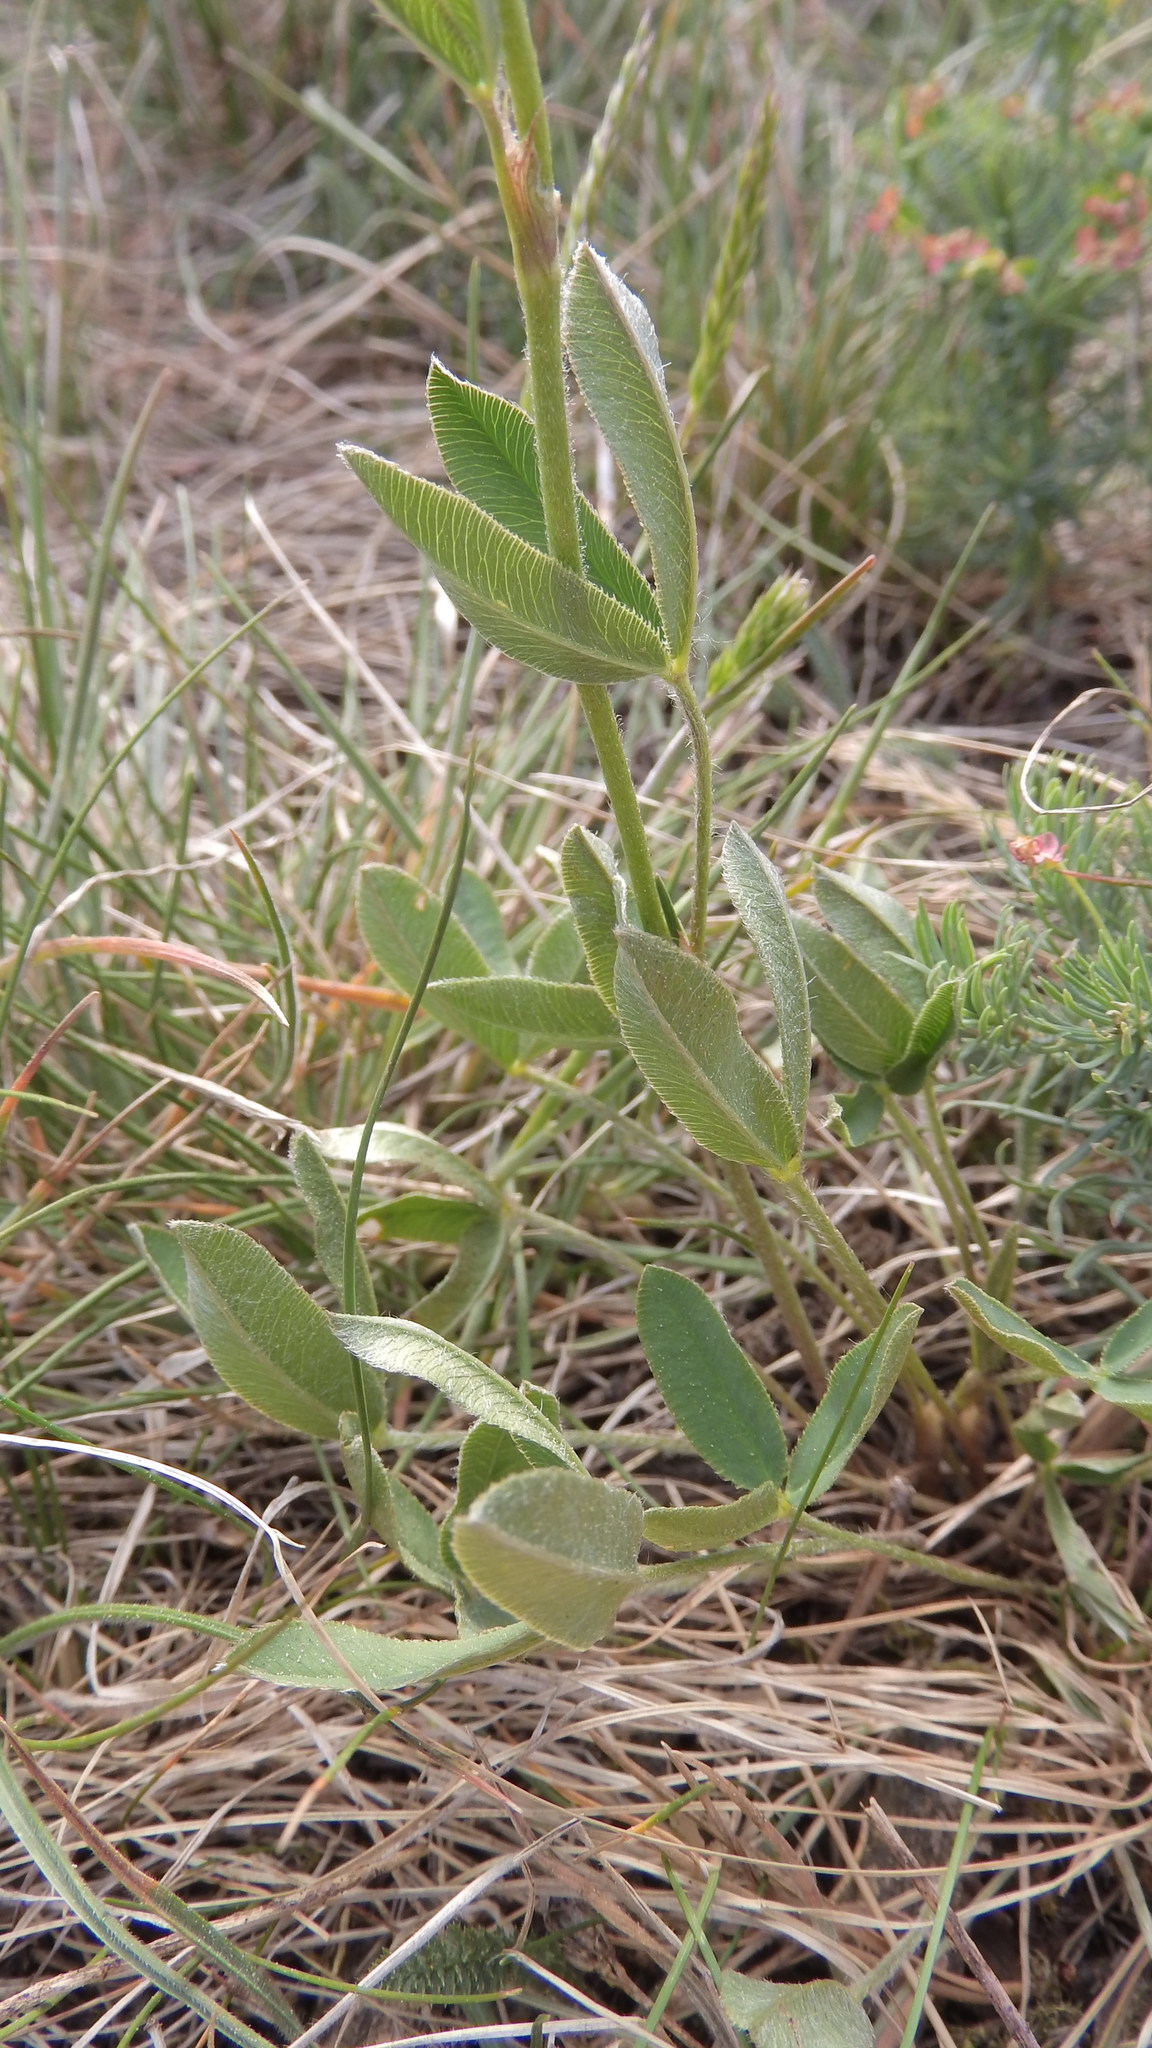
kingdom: Plantae
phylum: Tracheophyta
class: Magnoliopsida
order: Fabales
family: Fabaceae
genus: Trifolium
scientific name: Trifolium montanum
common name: Mountain clover
